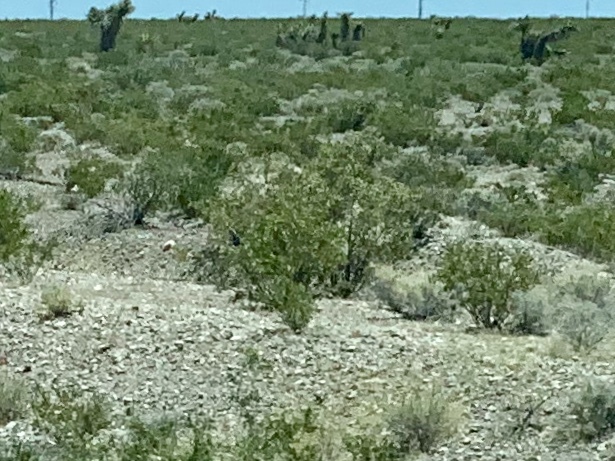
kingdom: Plantae
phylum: Tracheophyta
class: Magnoliopsida
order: Zygophyllales
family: Zygophyllaceae
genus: Larrea
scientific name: Larrea tridentata
